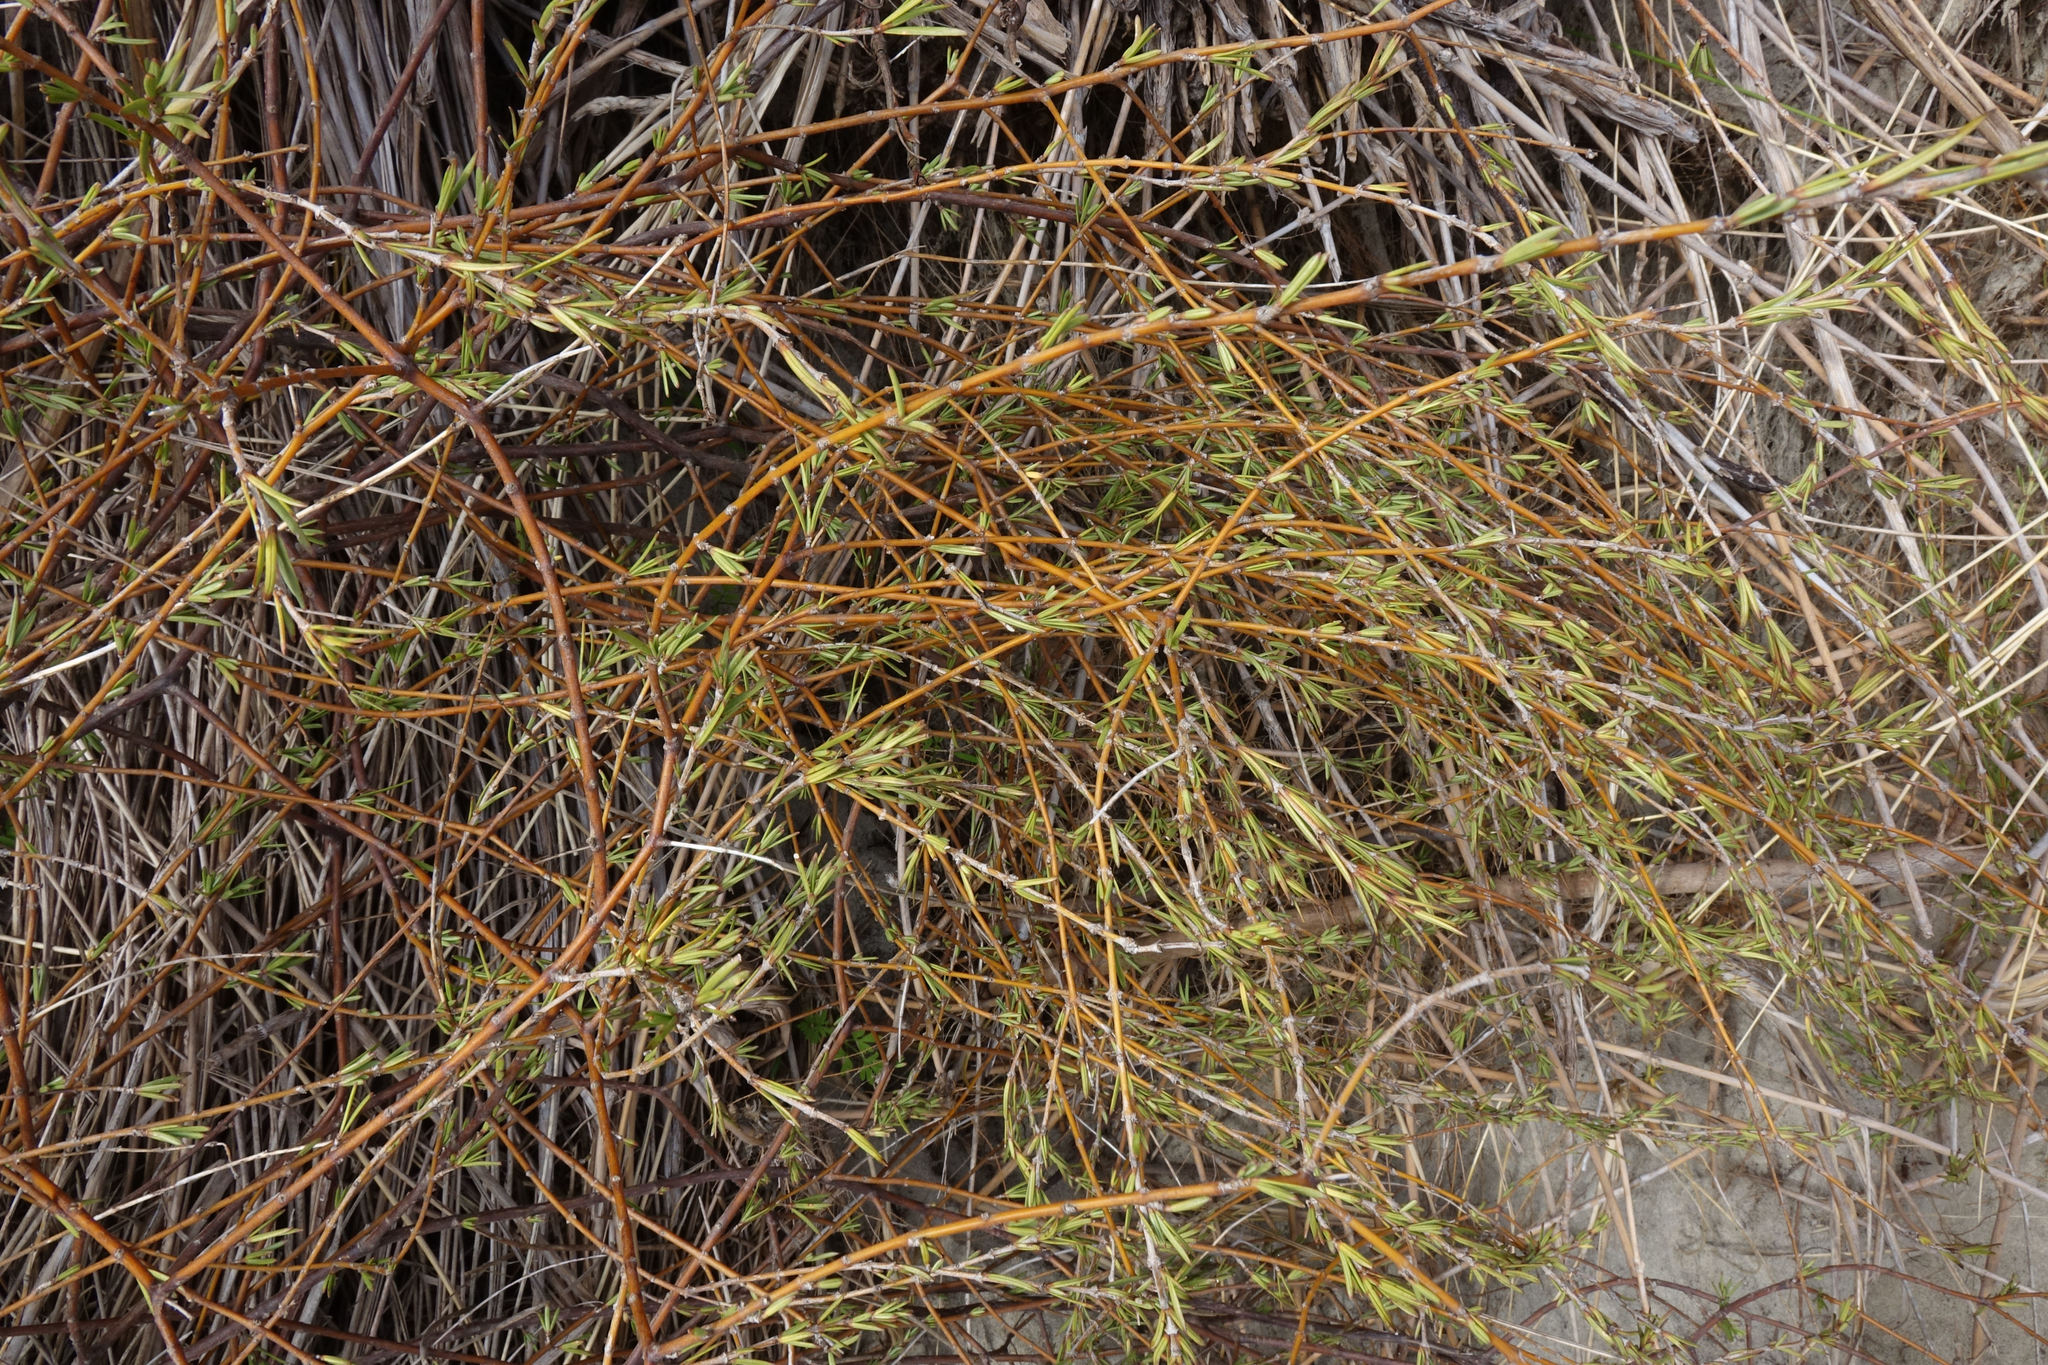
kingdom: Plantae
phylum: Tracheophyta
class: Magnoliopsida
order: Gentianales
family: Rubiaceae
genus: Coprosma
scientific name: Coprosma acerosa
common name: Sand coprosma
